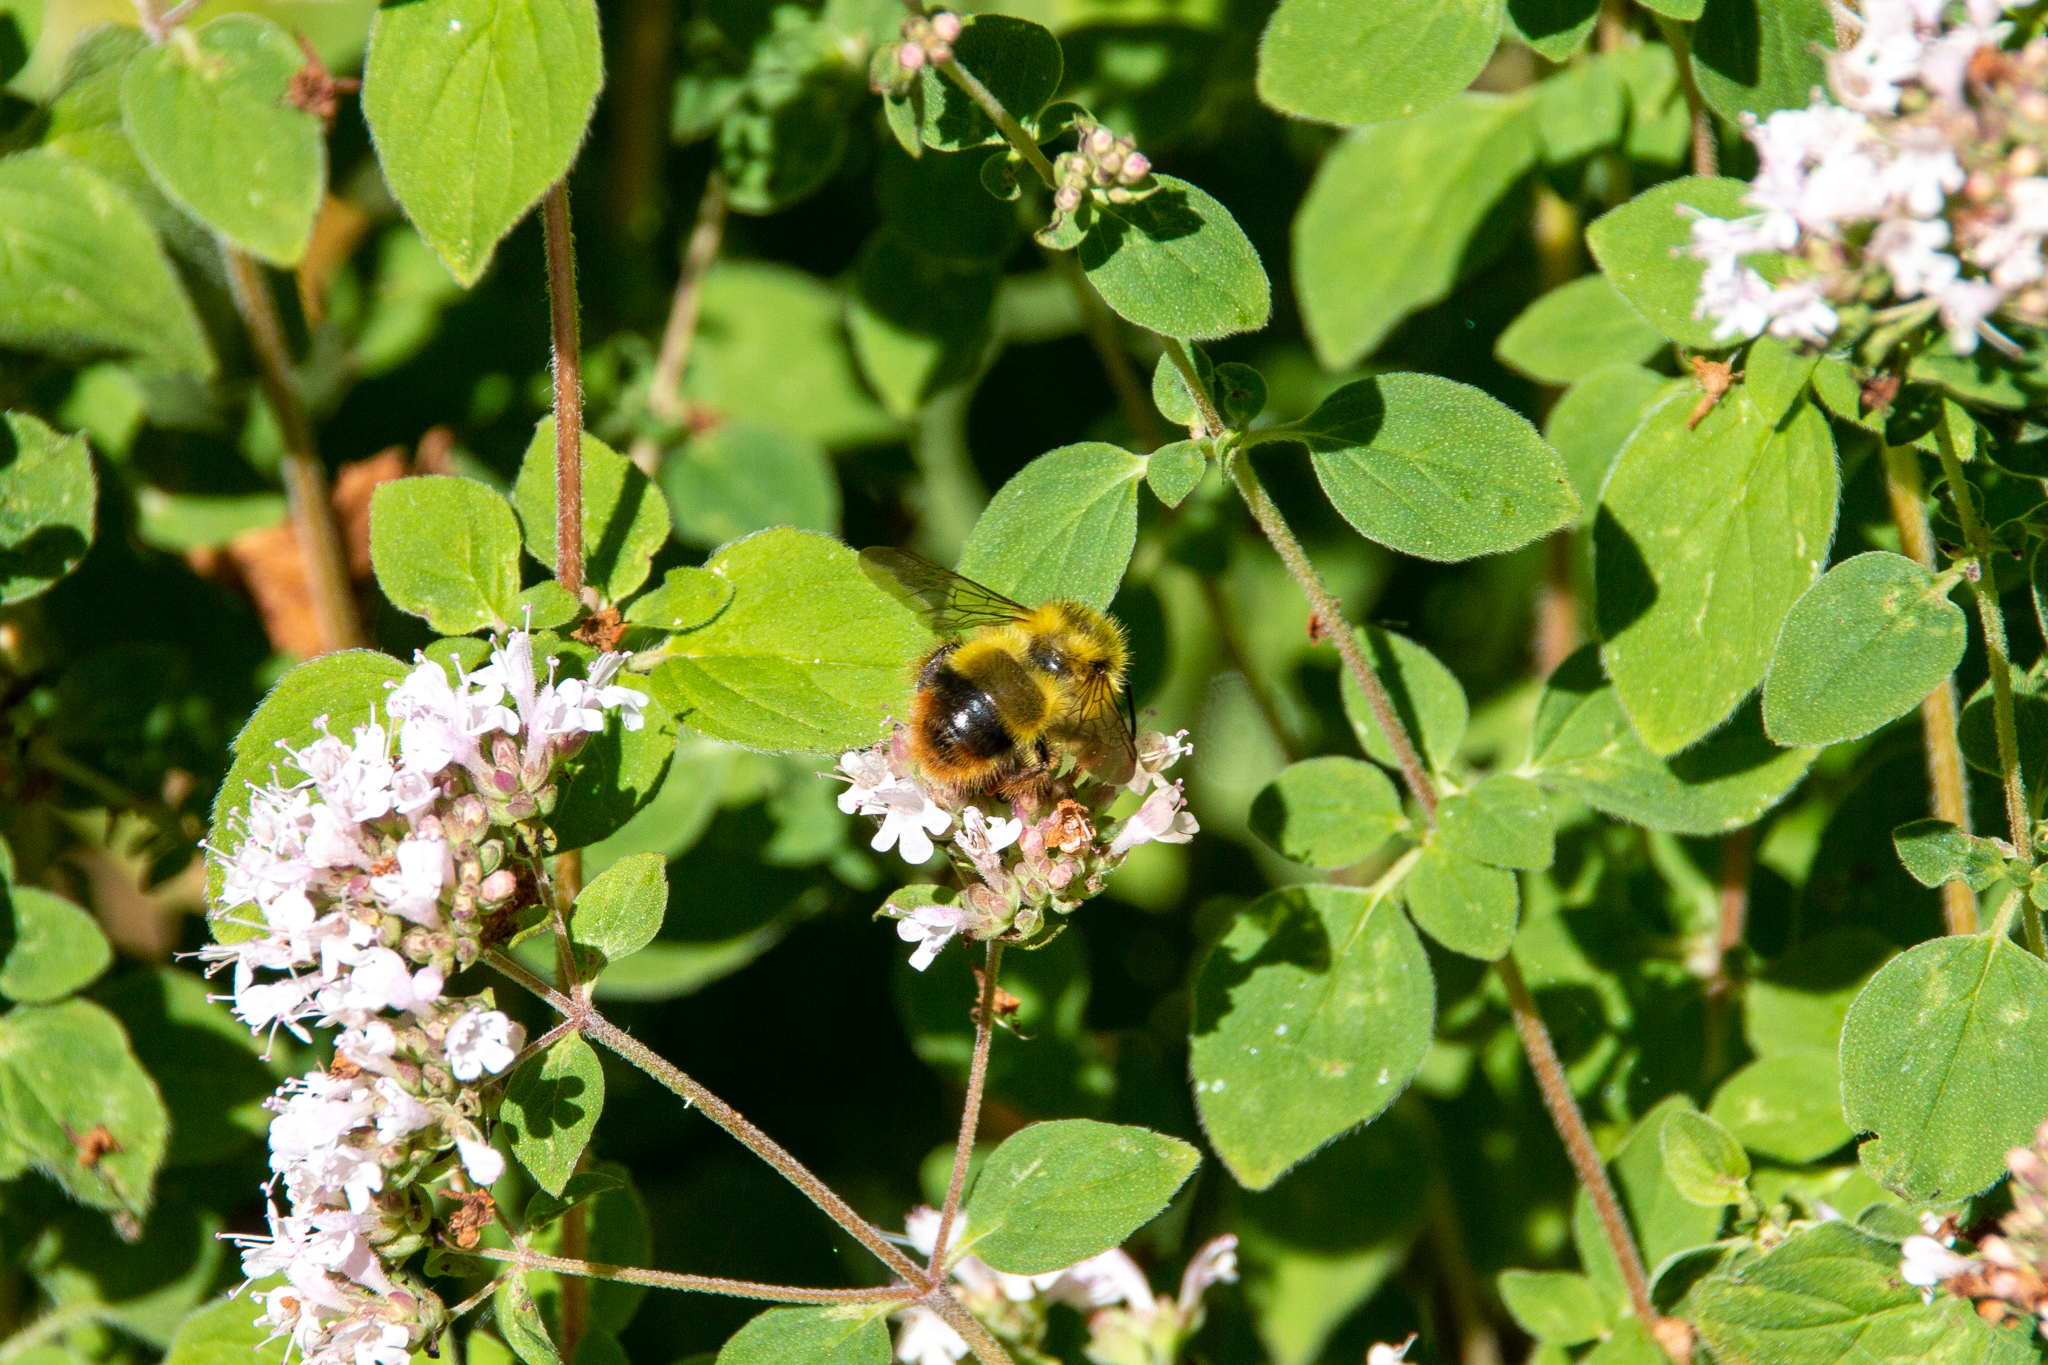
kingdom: Animalia
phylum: Arthropoda
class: Insecta
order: Hymenoptera
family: Apidae
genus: Bombus
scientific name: Bombus mixtus
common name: Fuzzy-horned bumble bee
